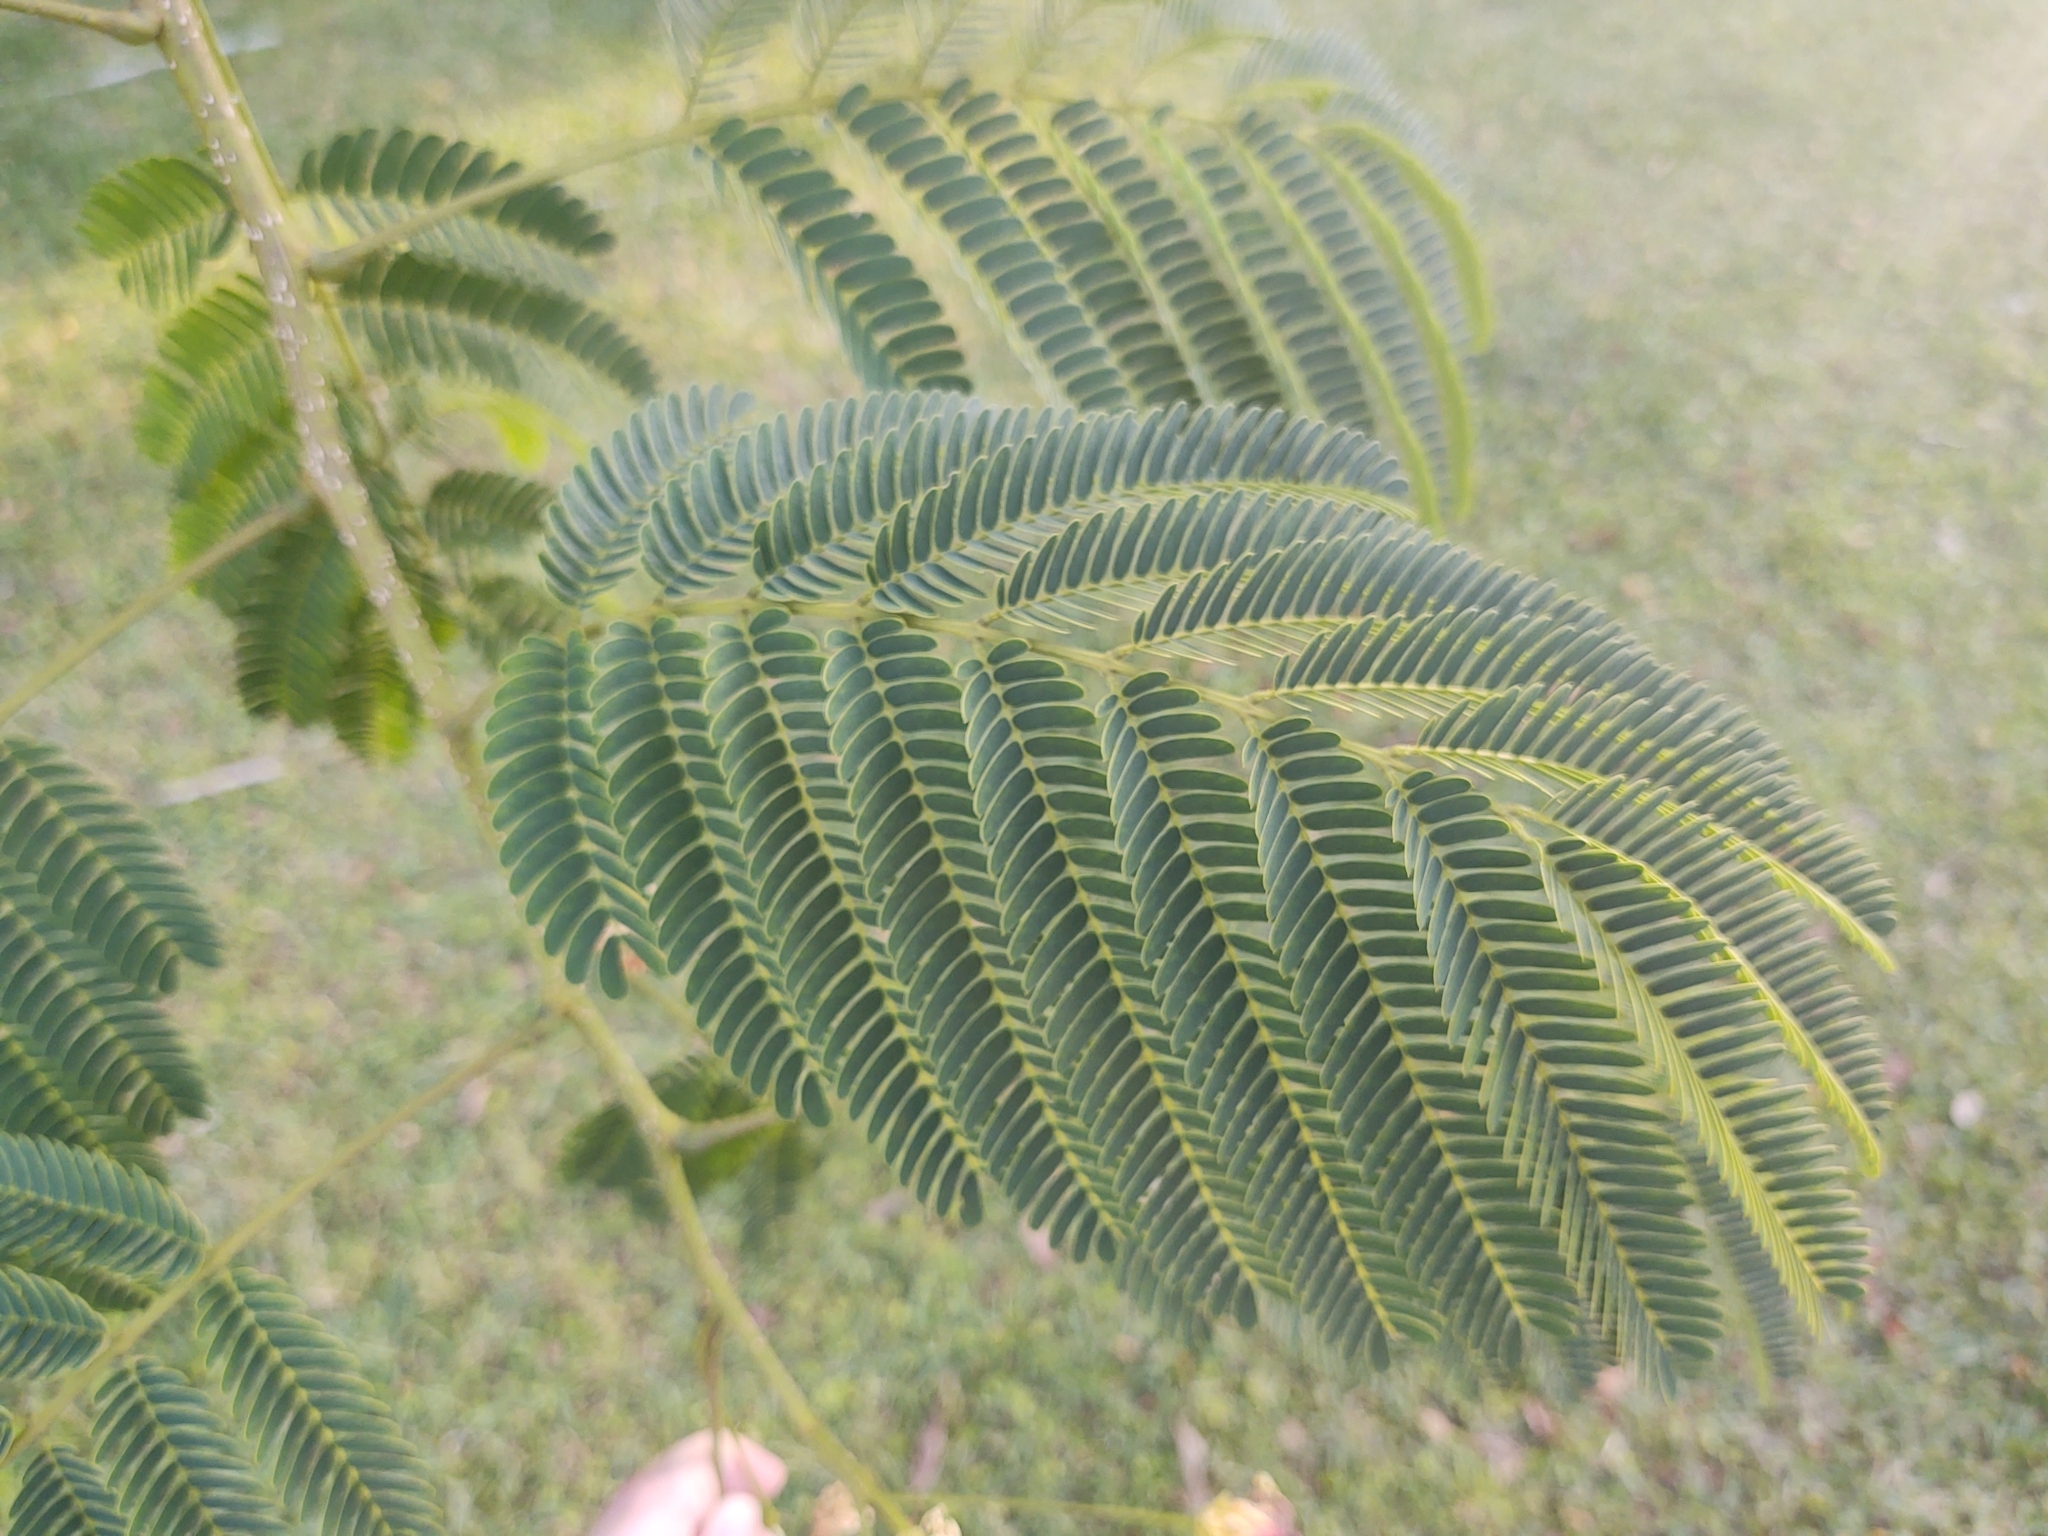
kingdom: Plantae
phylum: Tracheophyta
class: Magnoliopsida
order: Fabales
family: Fabaceae
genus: Albizia
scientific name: Albizia julibrissin
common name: Silktree
